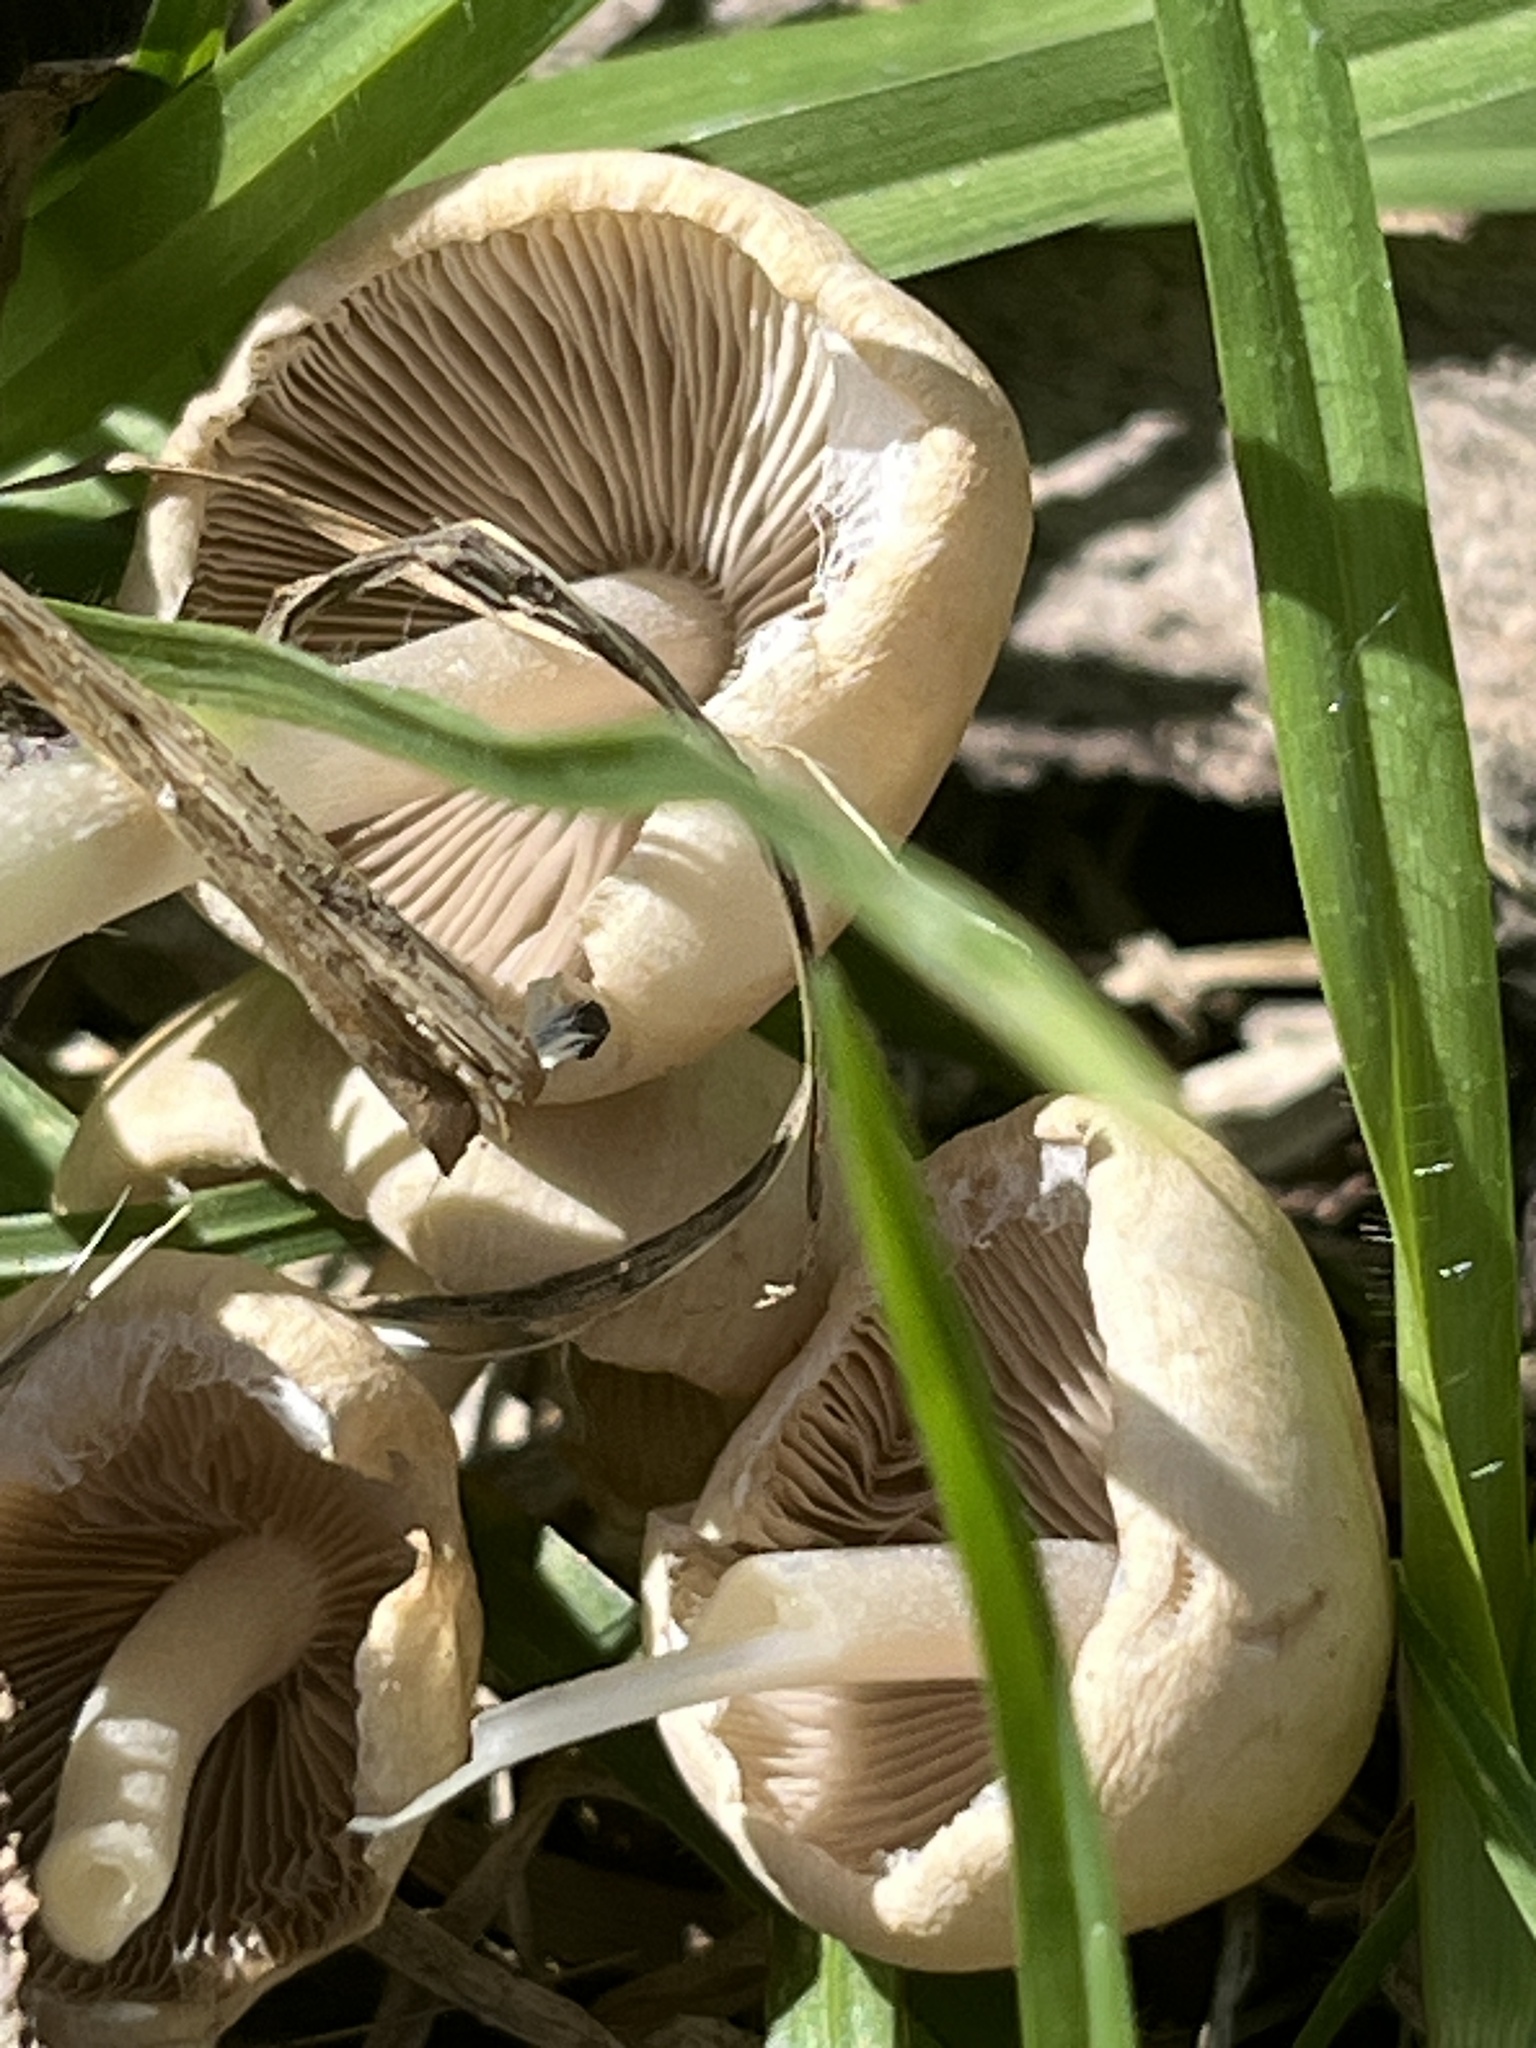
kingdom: Fungi
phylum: Basidiomycota
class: Agaricomycetes
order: Agaricales
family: Psathyrellaceae
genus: Candolleomyces
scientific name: Candolleomyces candolleanus
